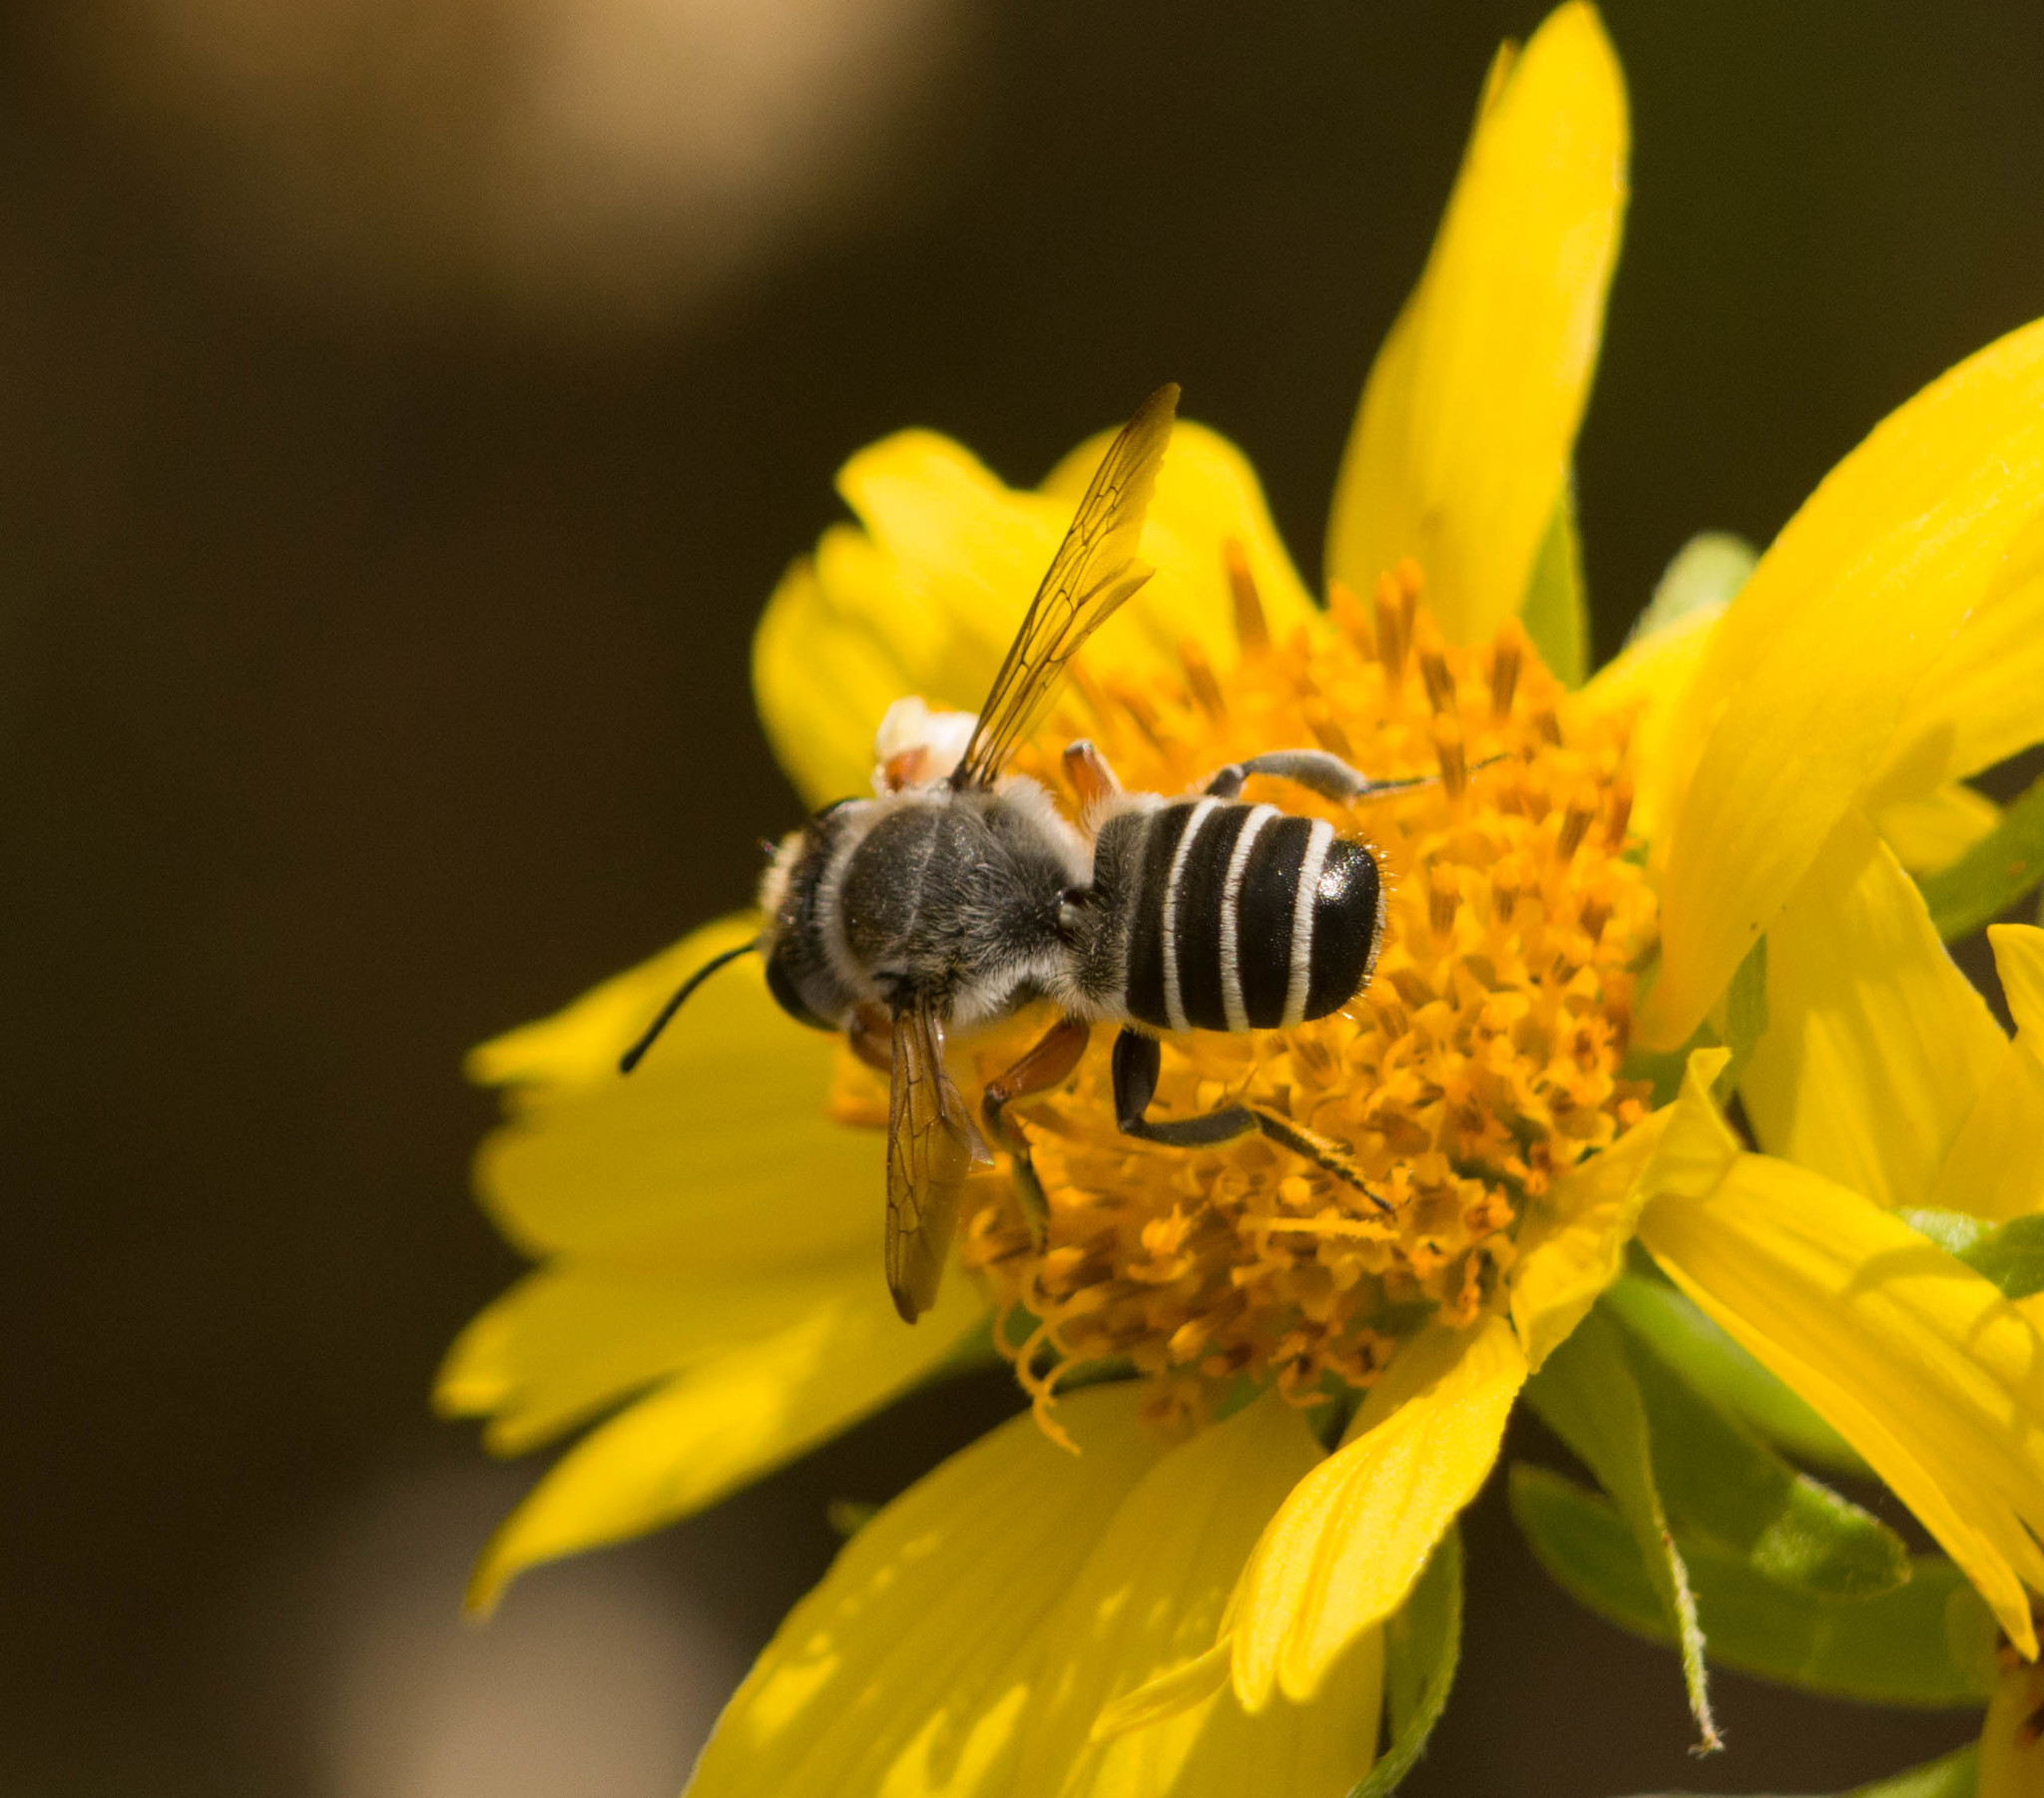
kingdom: Animalia
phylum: Arthropoda
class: Insecta
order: Hymenoptera
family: Megachilidae
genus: Megachile
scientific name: Megachile policaris
